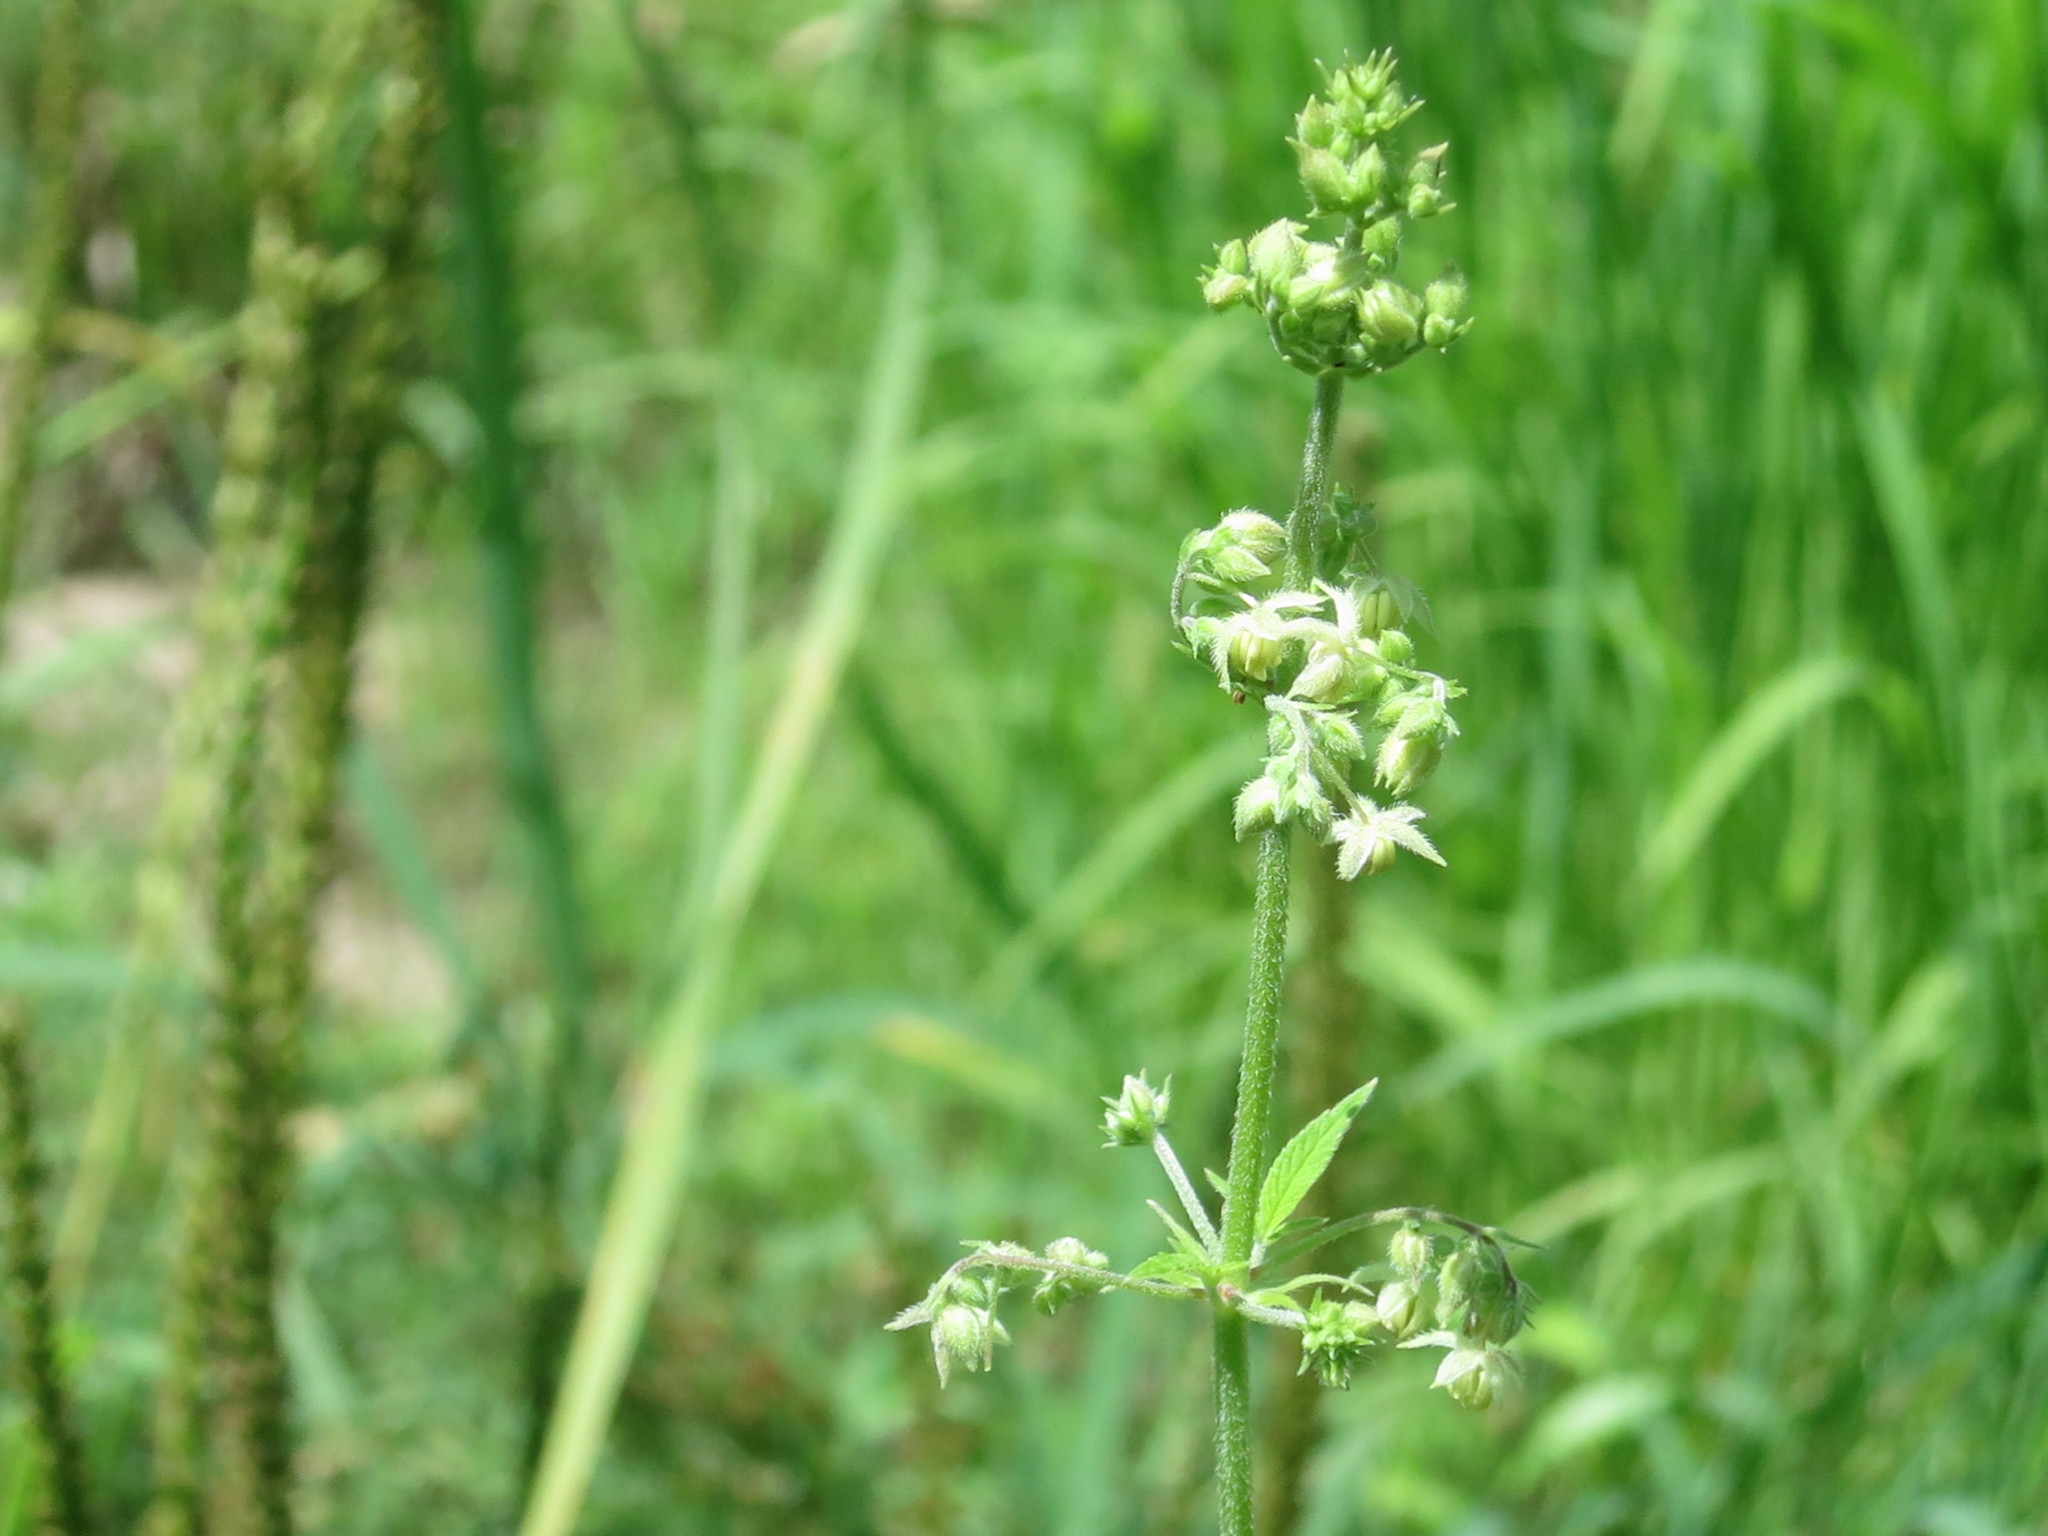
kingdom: Plantae
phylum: Tracheophyta
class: Magnoliopsida
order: Rosales
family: Cannabaceae
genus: Humulus
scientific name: Humulus scandens
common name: Japanese hop
